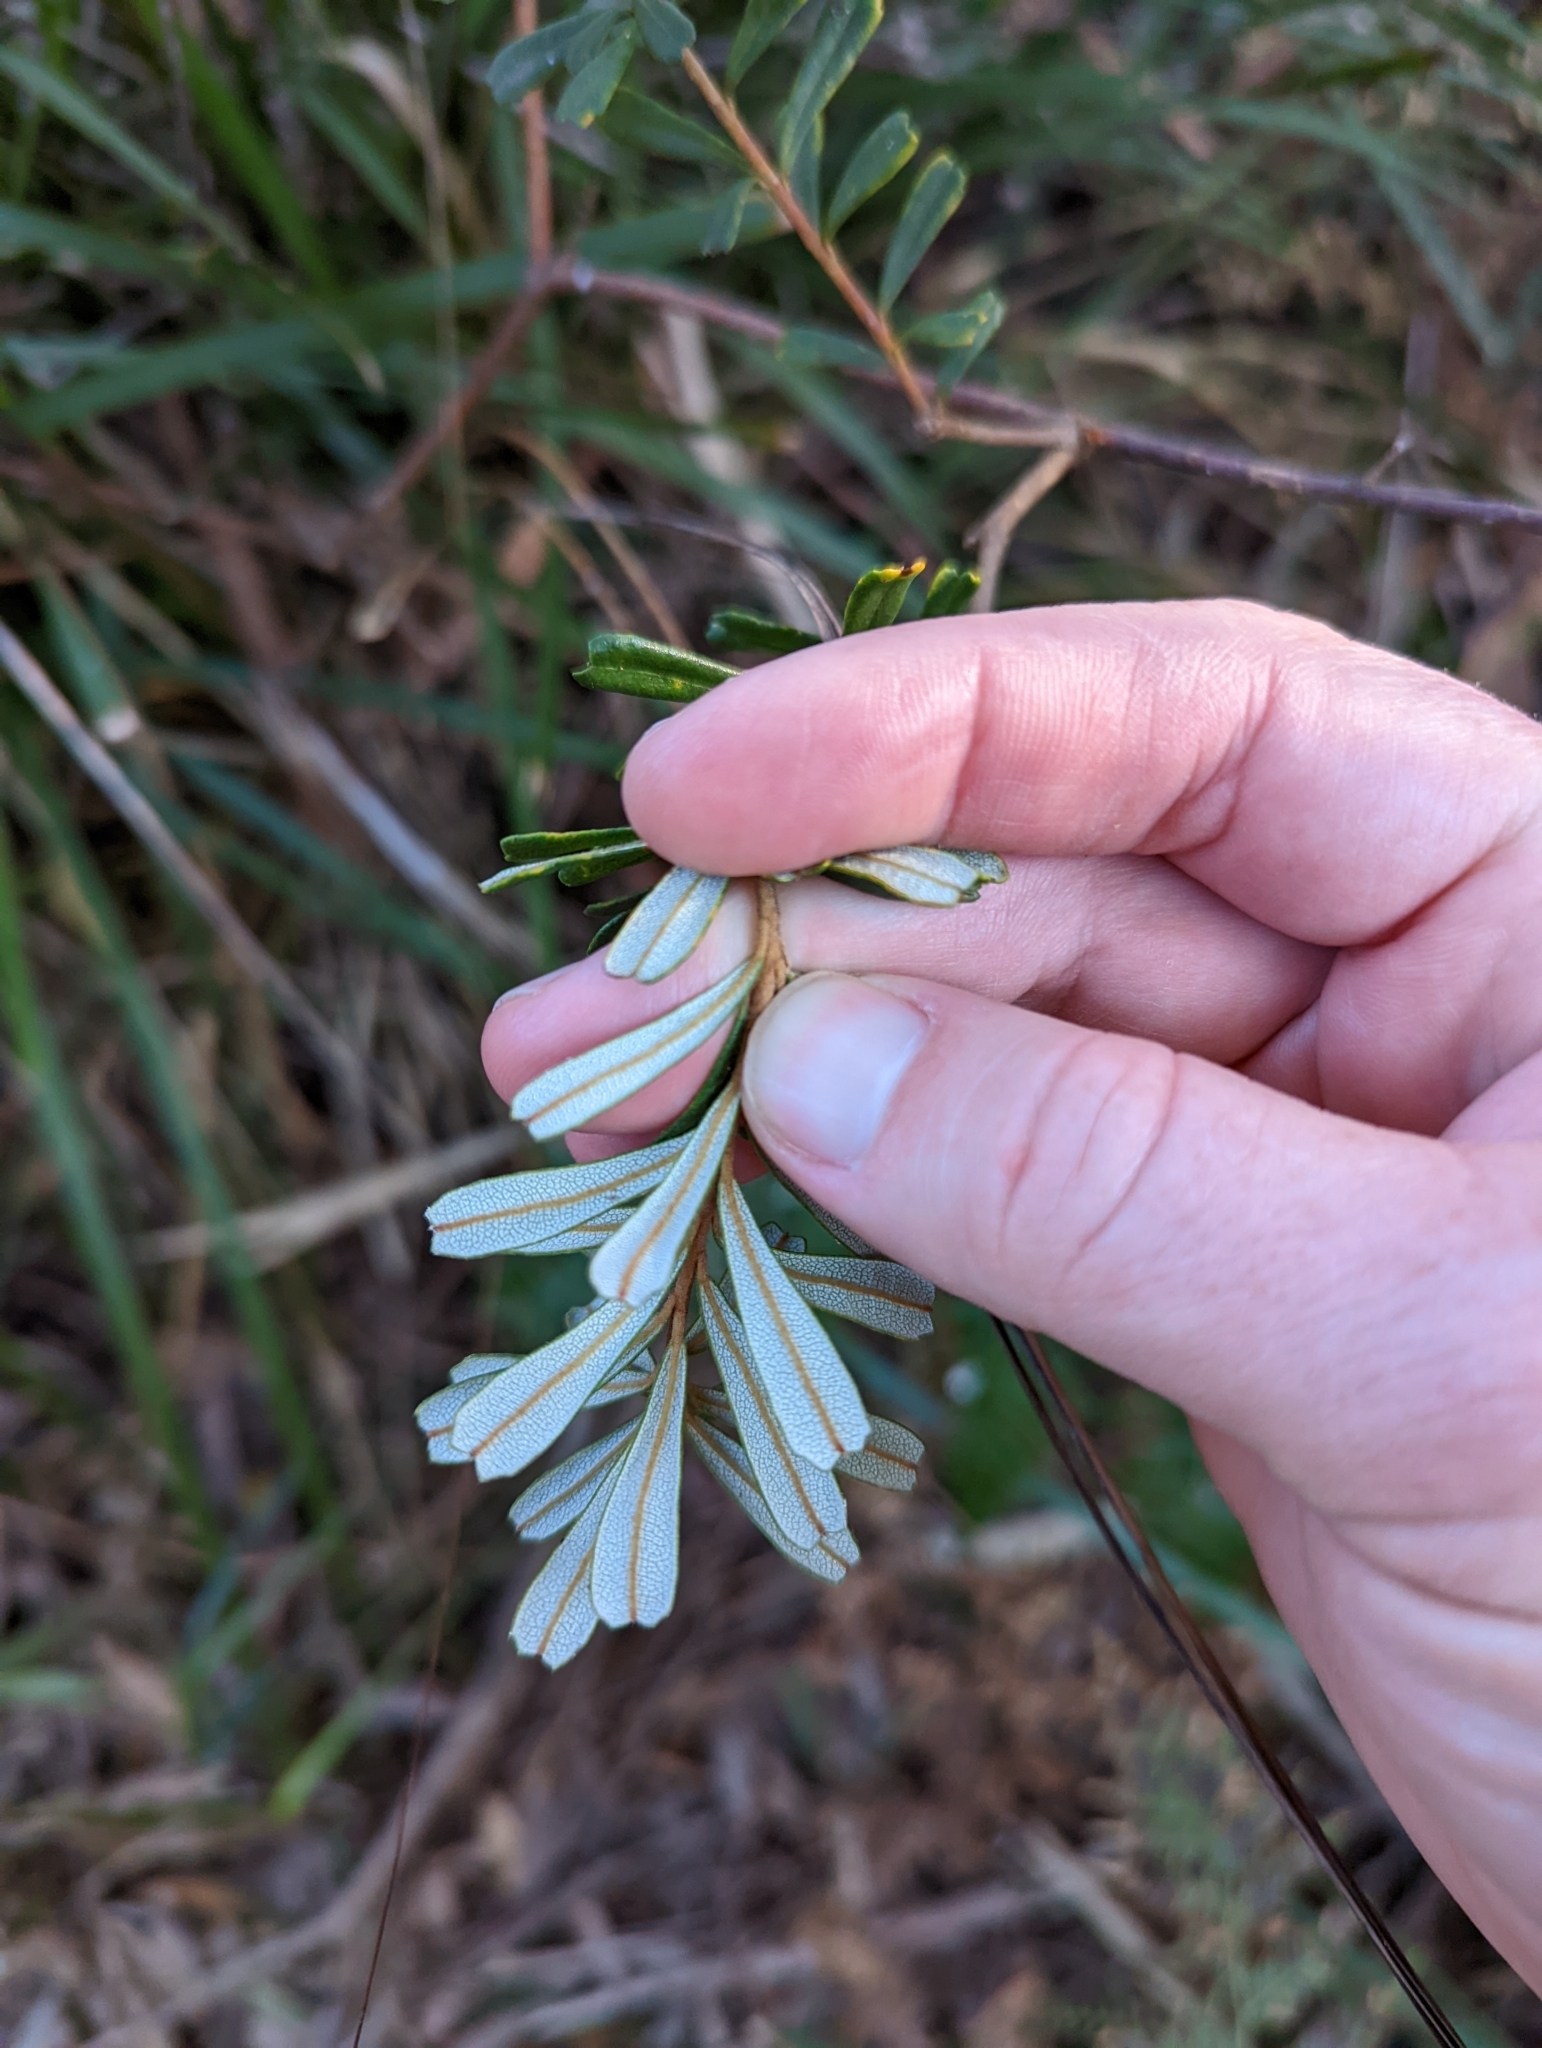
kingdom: Plantae
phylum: Tracheophyta
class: Magnoliopsida
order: Proteales
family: Proteaceae
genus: Banksia
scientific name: Banksia marginata
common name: Silver banksia
